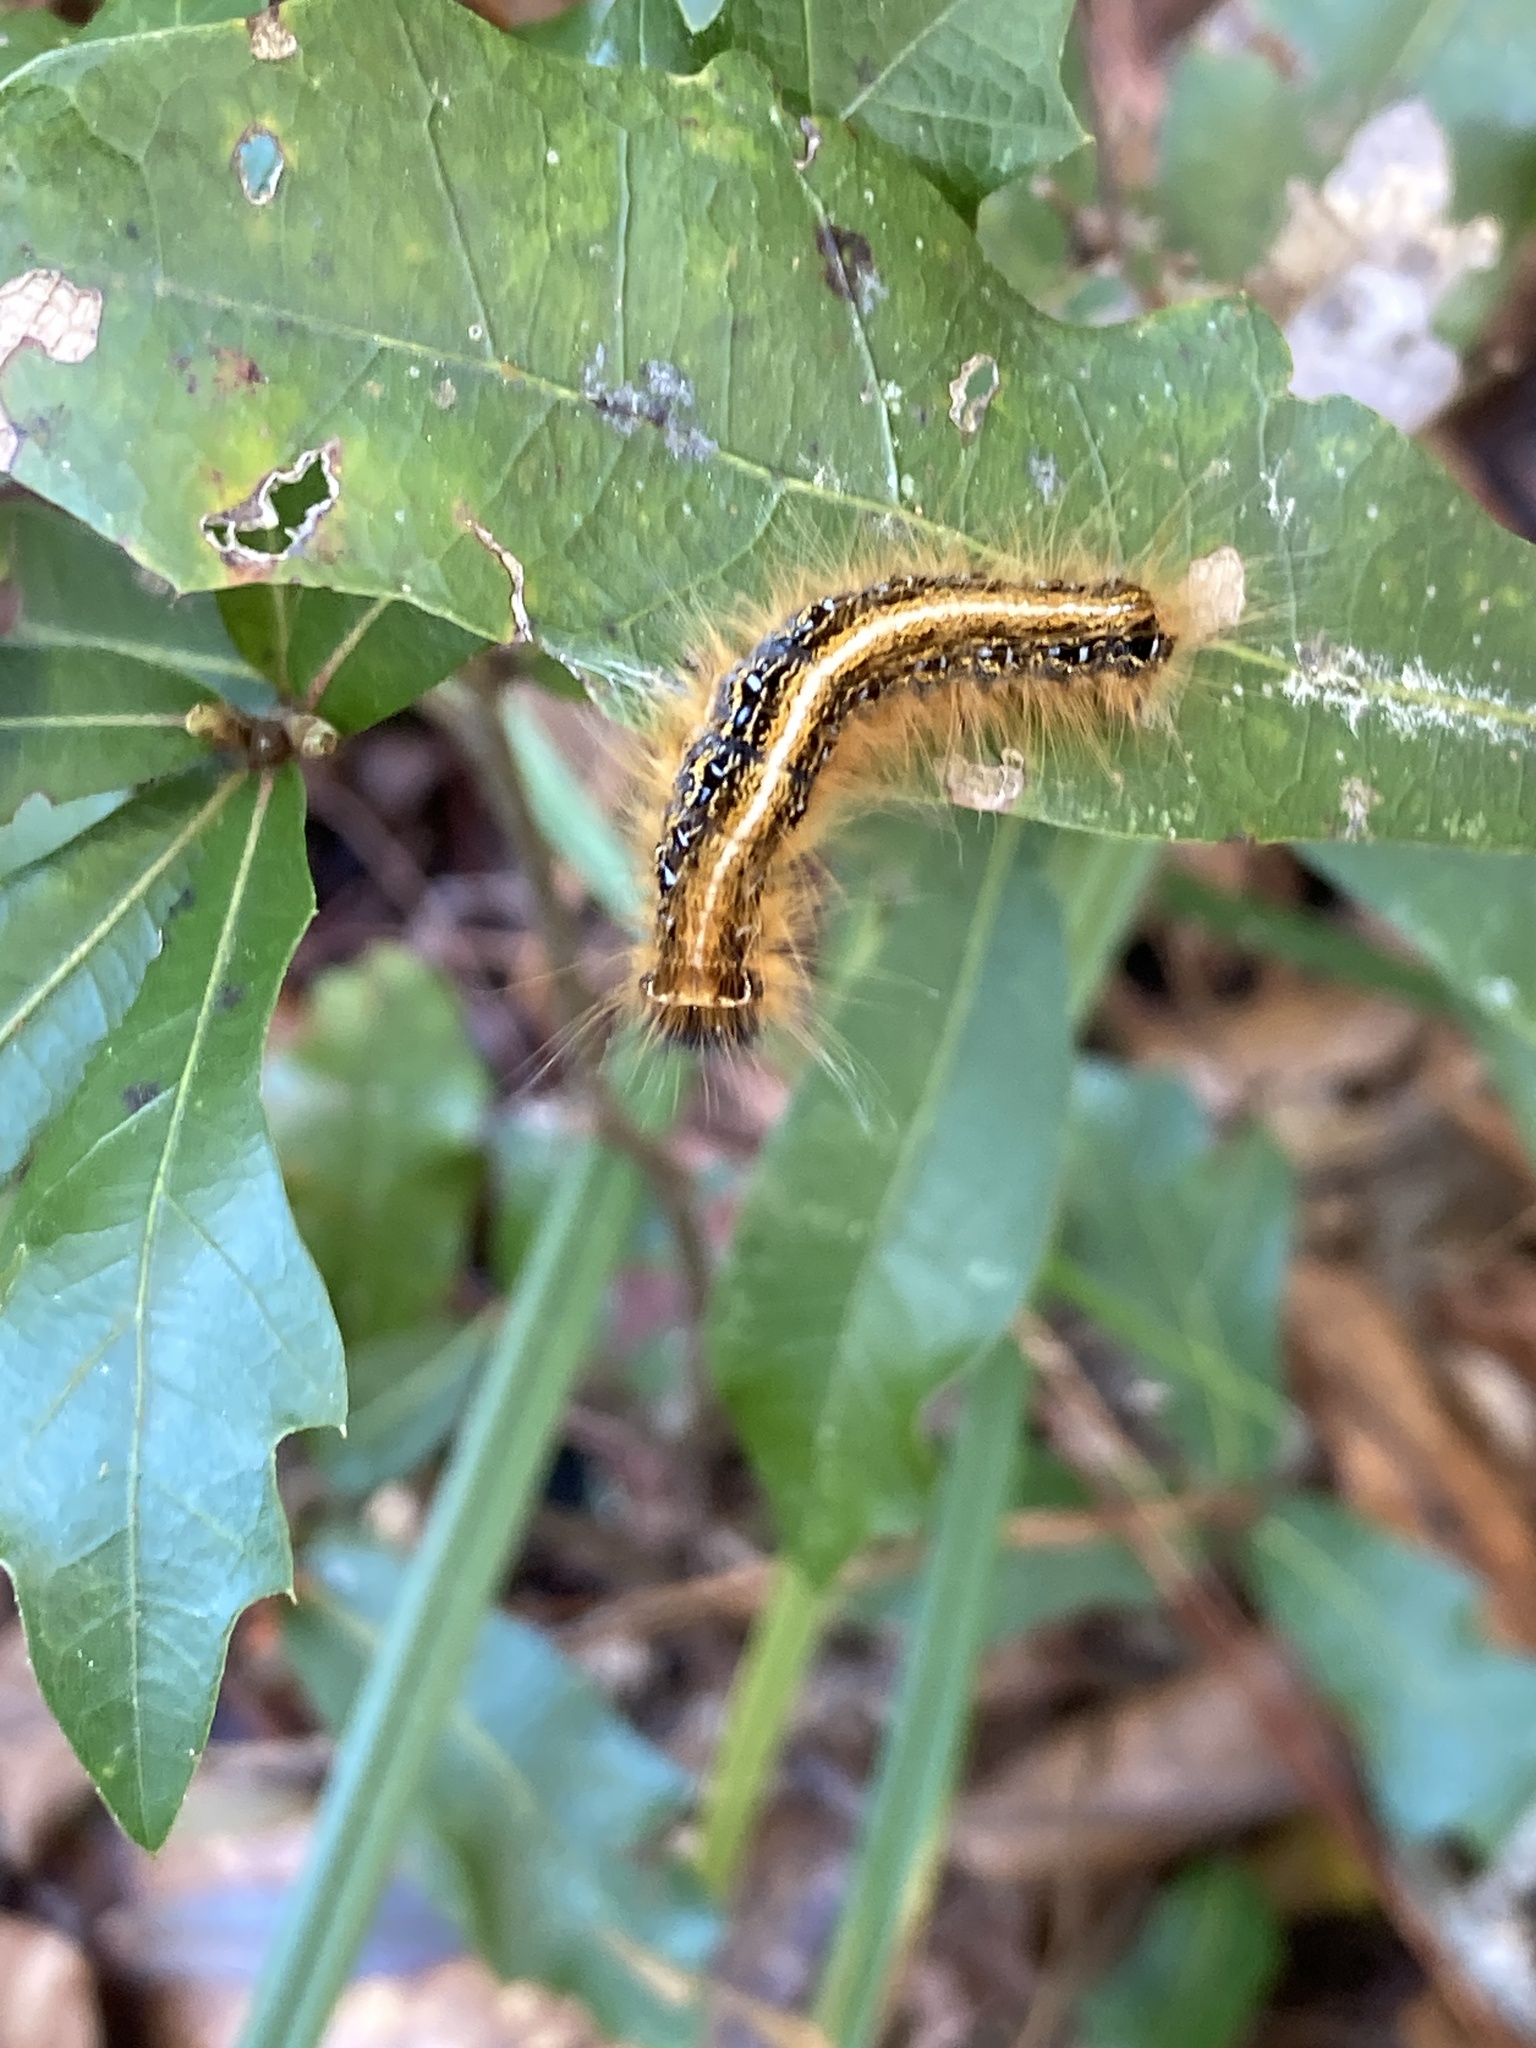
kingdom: Animalia
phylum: Arthropoda
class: Insecta
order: Lepidoptera
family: Lasiocampidae
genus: Malacosoma
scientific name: Malacosoma americana
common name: Eastern tent caterpillar moth
